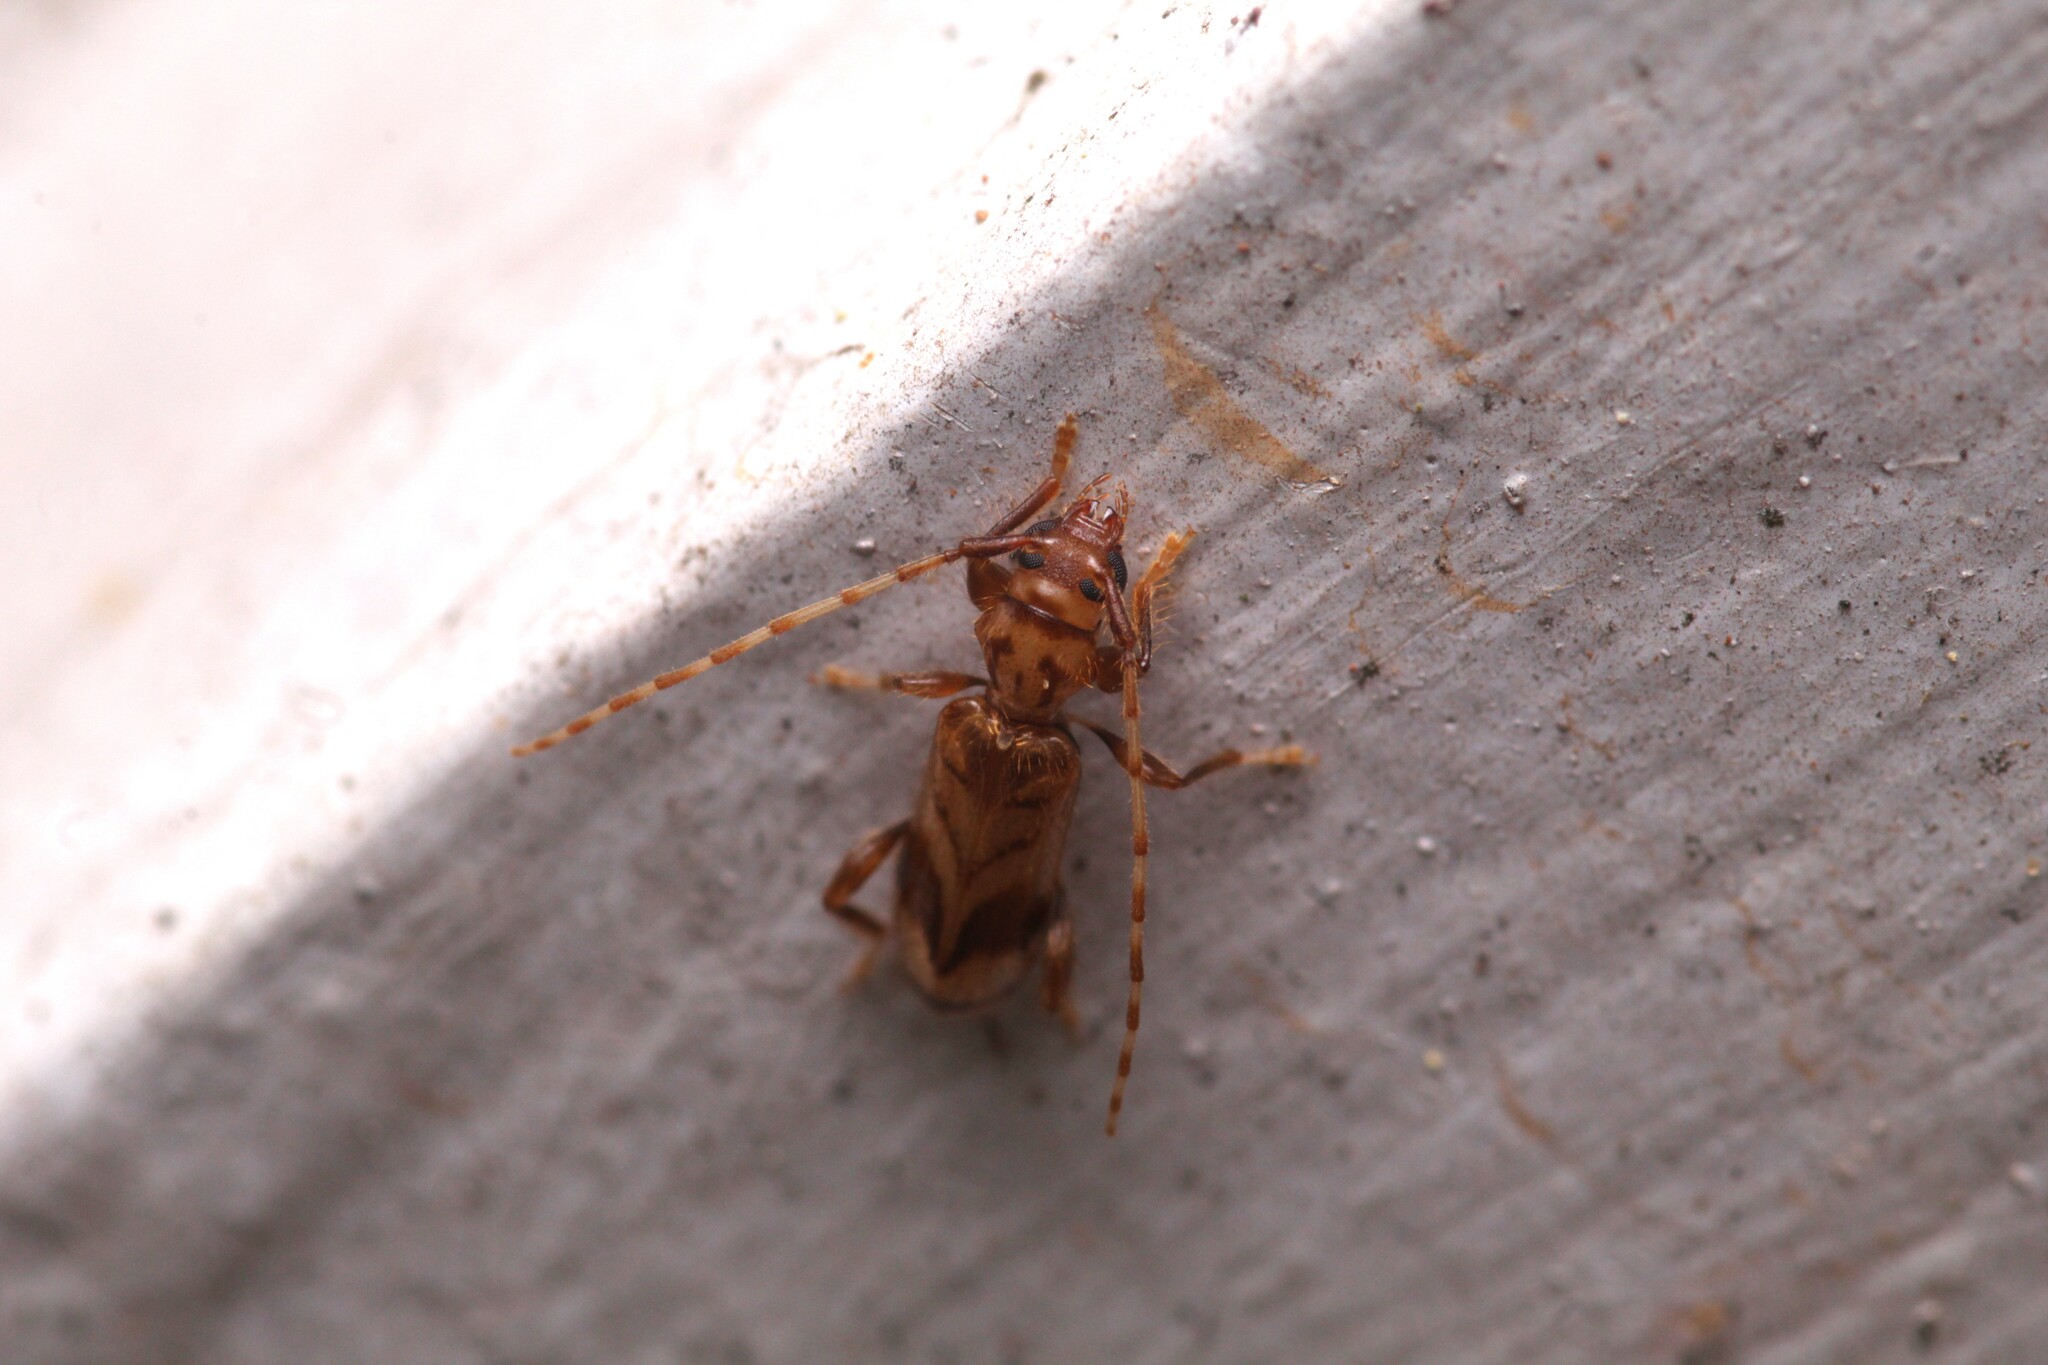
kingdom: Animalia
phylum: Arthropoda
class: Insecta
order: Coleoptera
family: Cerambycidae
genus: Obrium
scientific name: Obrium maculatum
